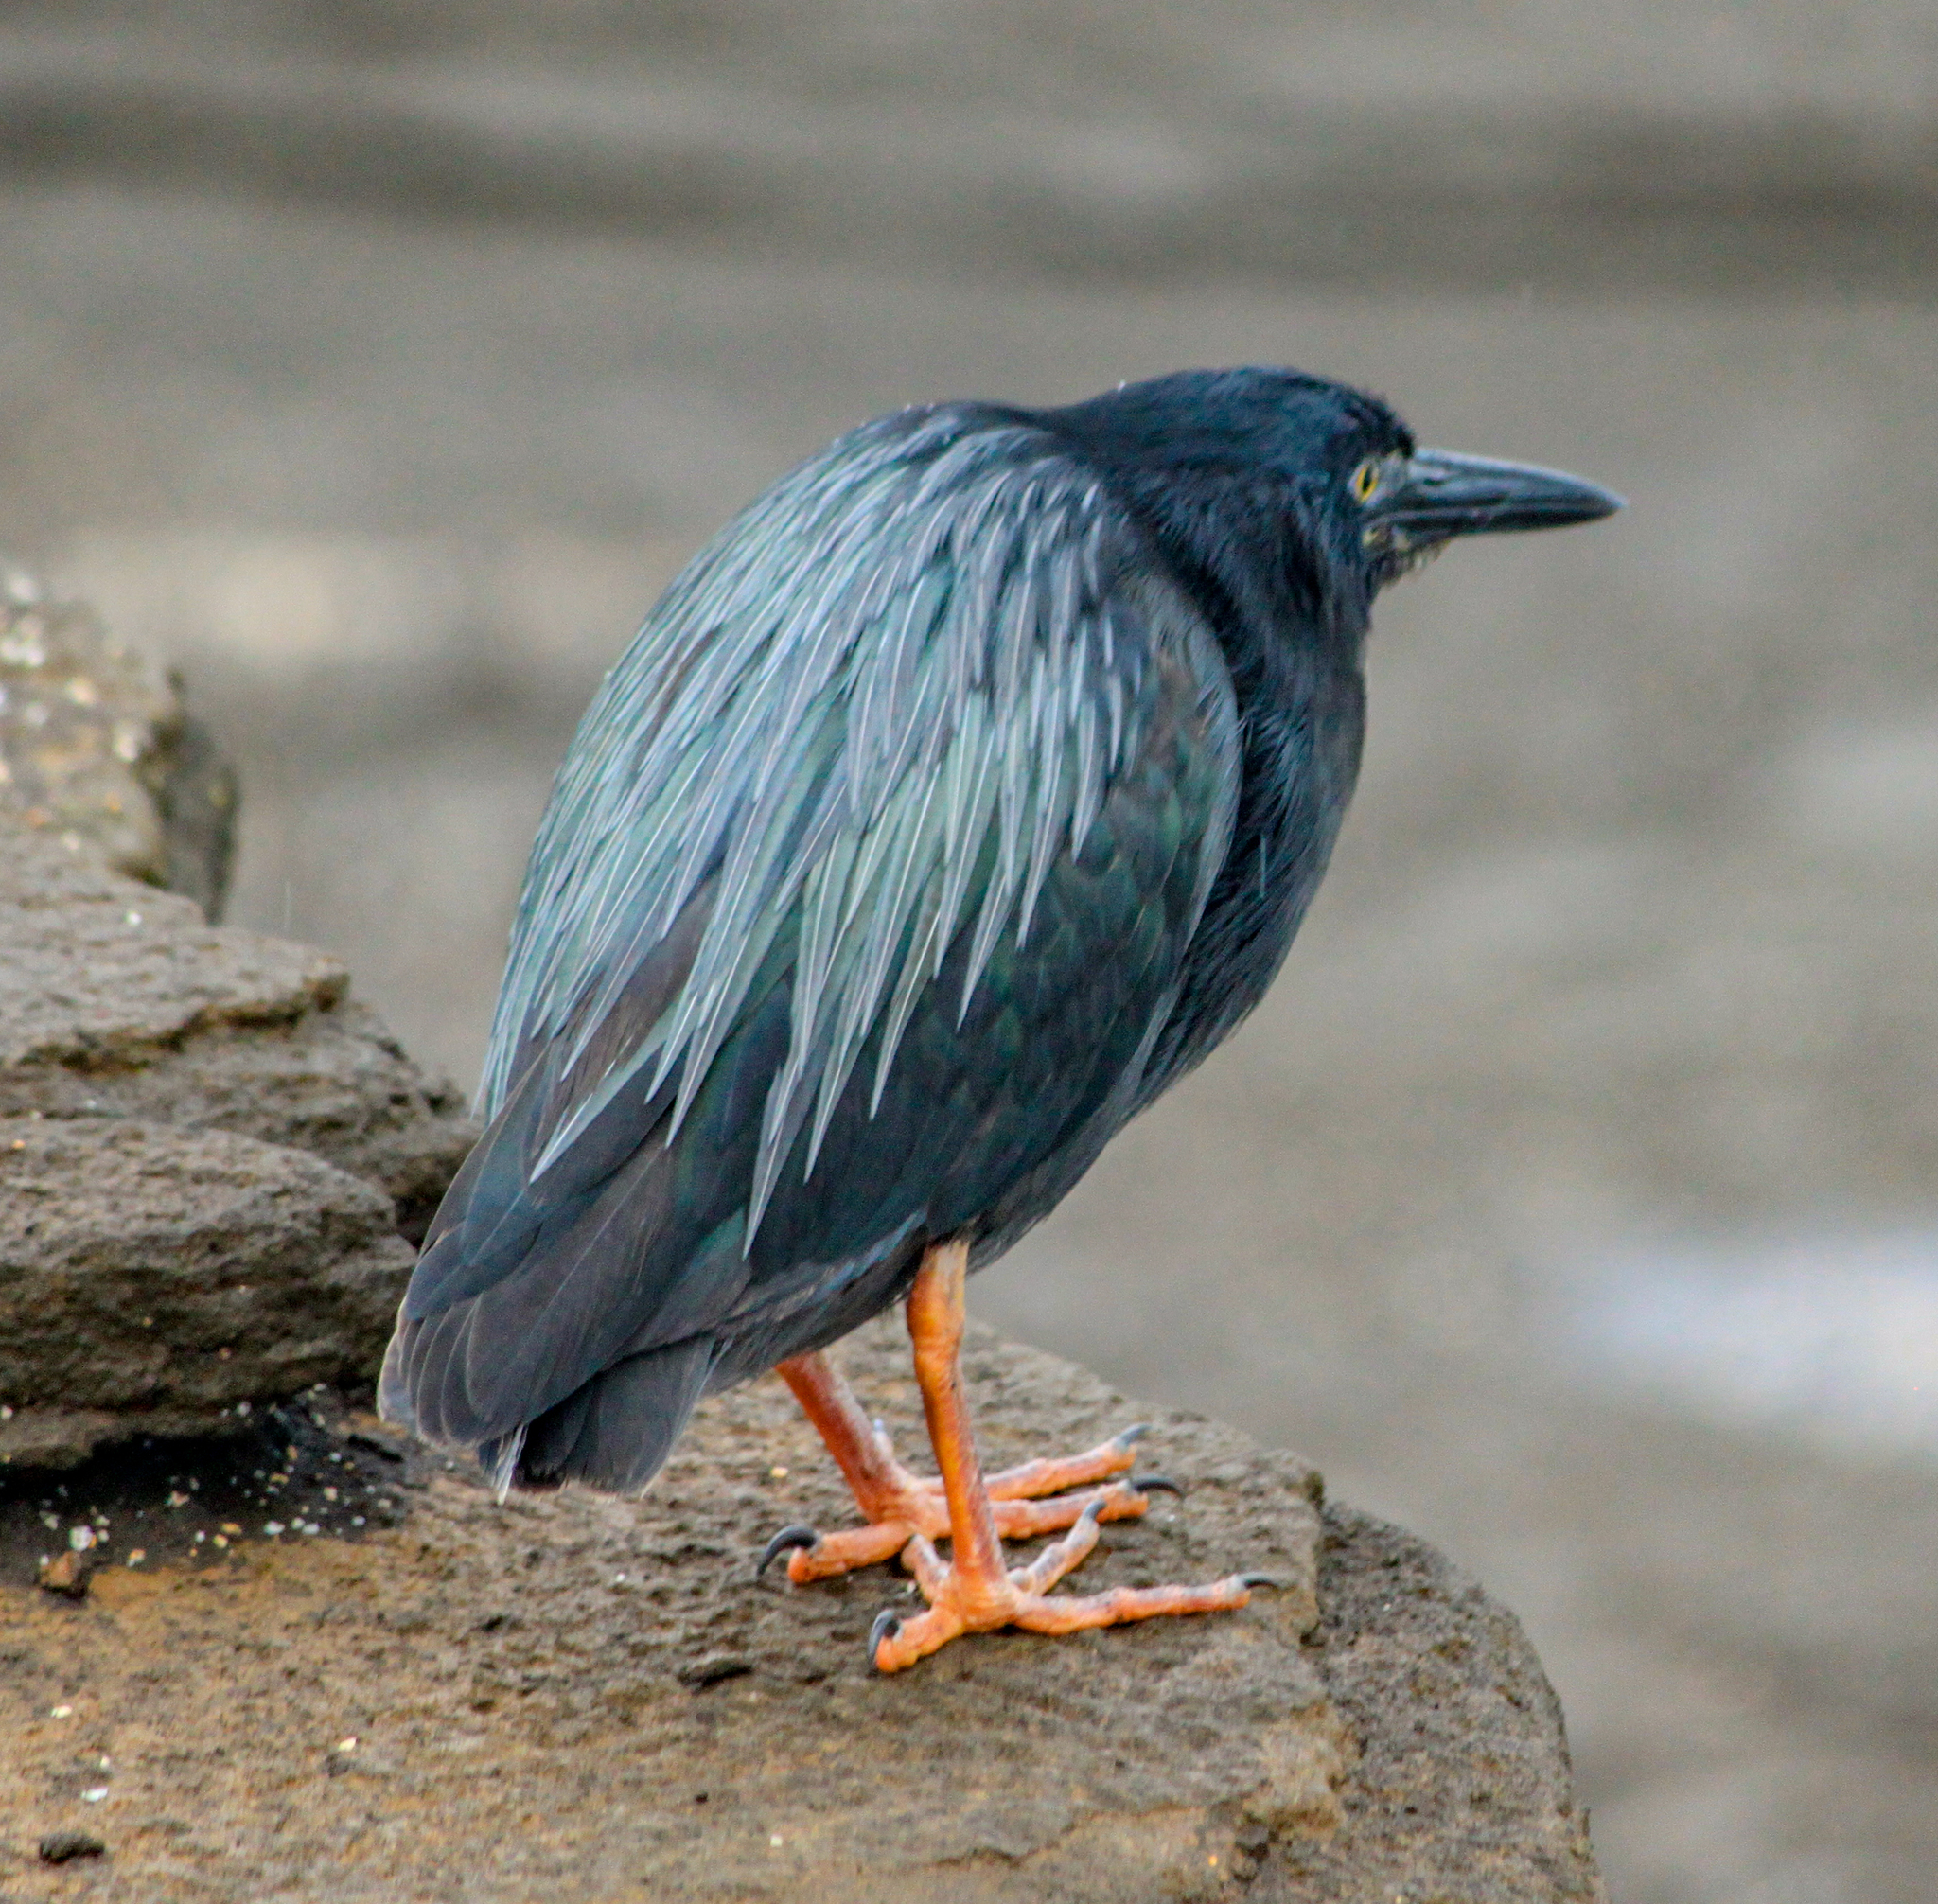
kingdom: Animalia
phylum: Chordata
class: Aves
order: Pelecaniformes
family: Ardeidae
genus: Butorides
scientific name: Butorides striata
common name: Striated heron
